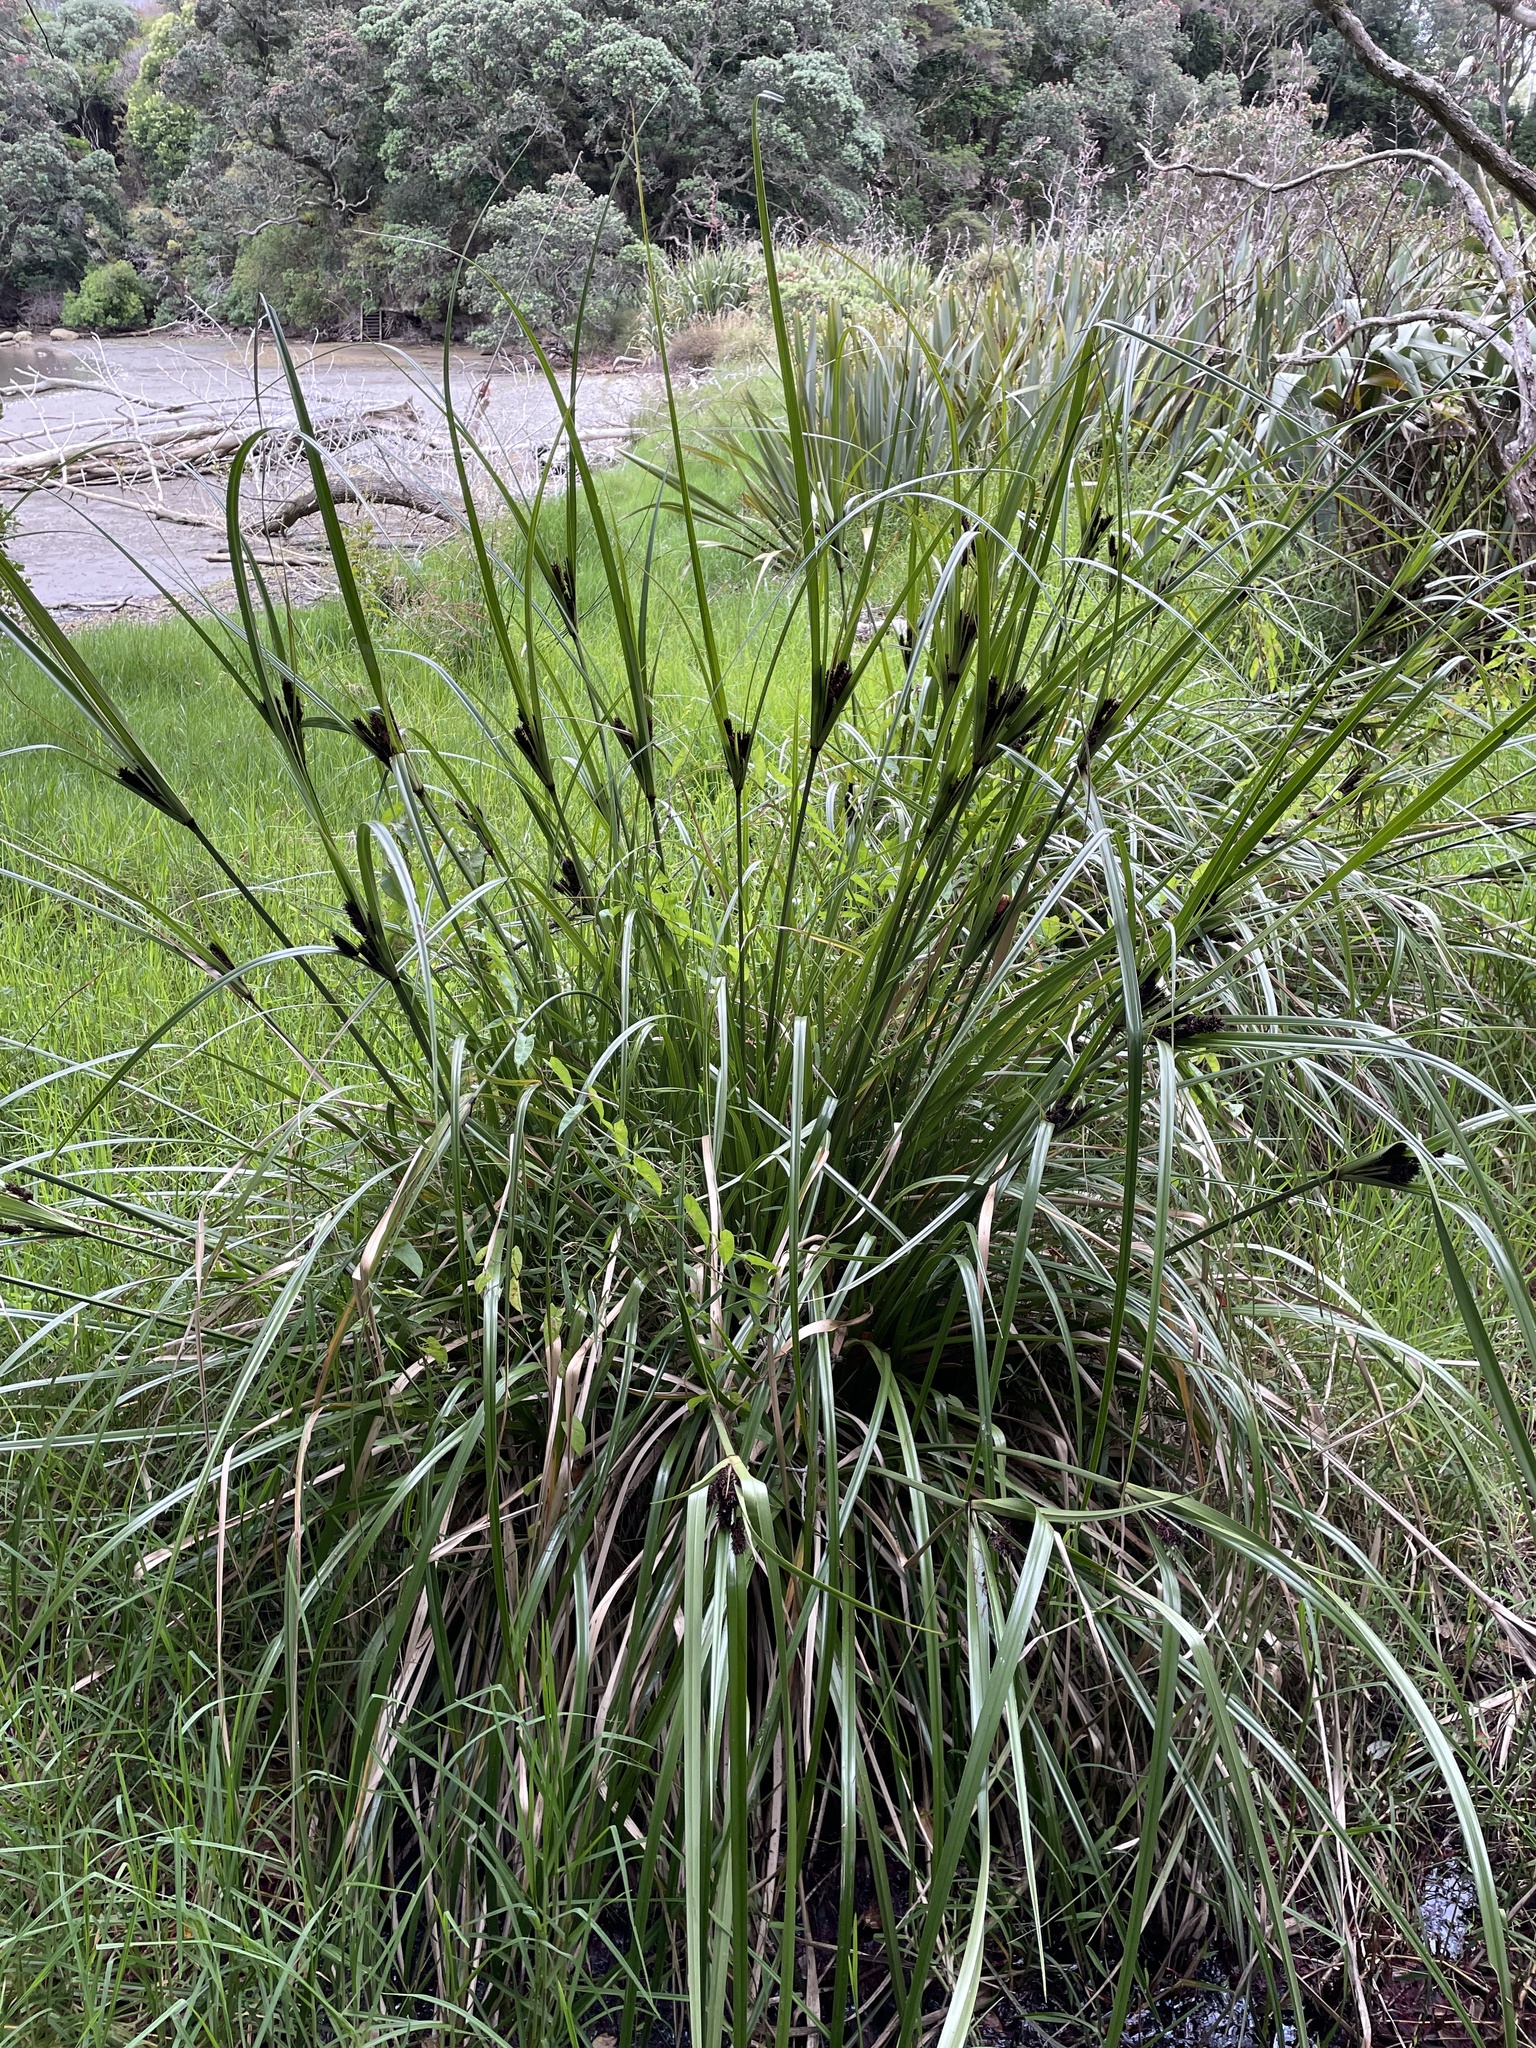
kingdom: Plantae
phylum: Tracheophyta
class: Liliopsida
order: Poales
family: Cyperaceae
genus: Cyperus
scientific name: Cyperus ustulatus
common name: Giant umbrella-sedge
